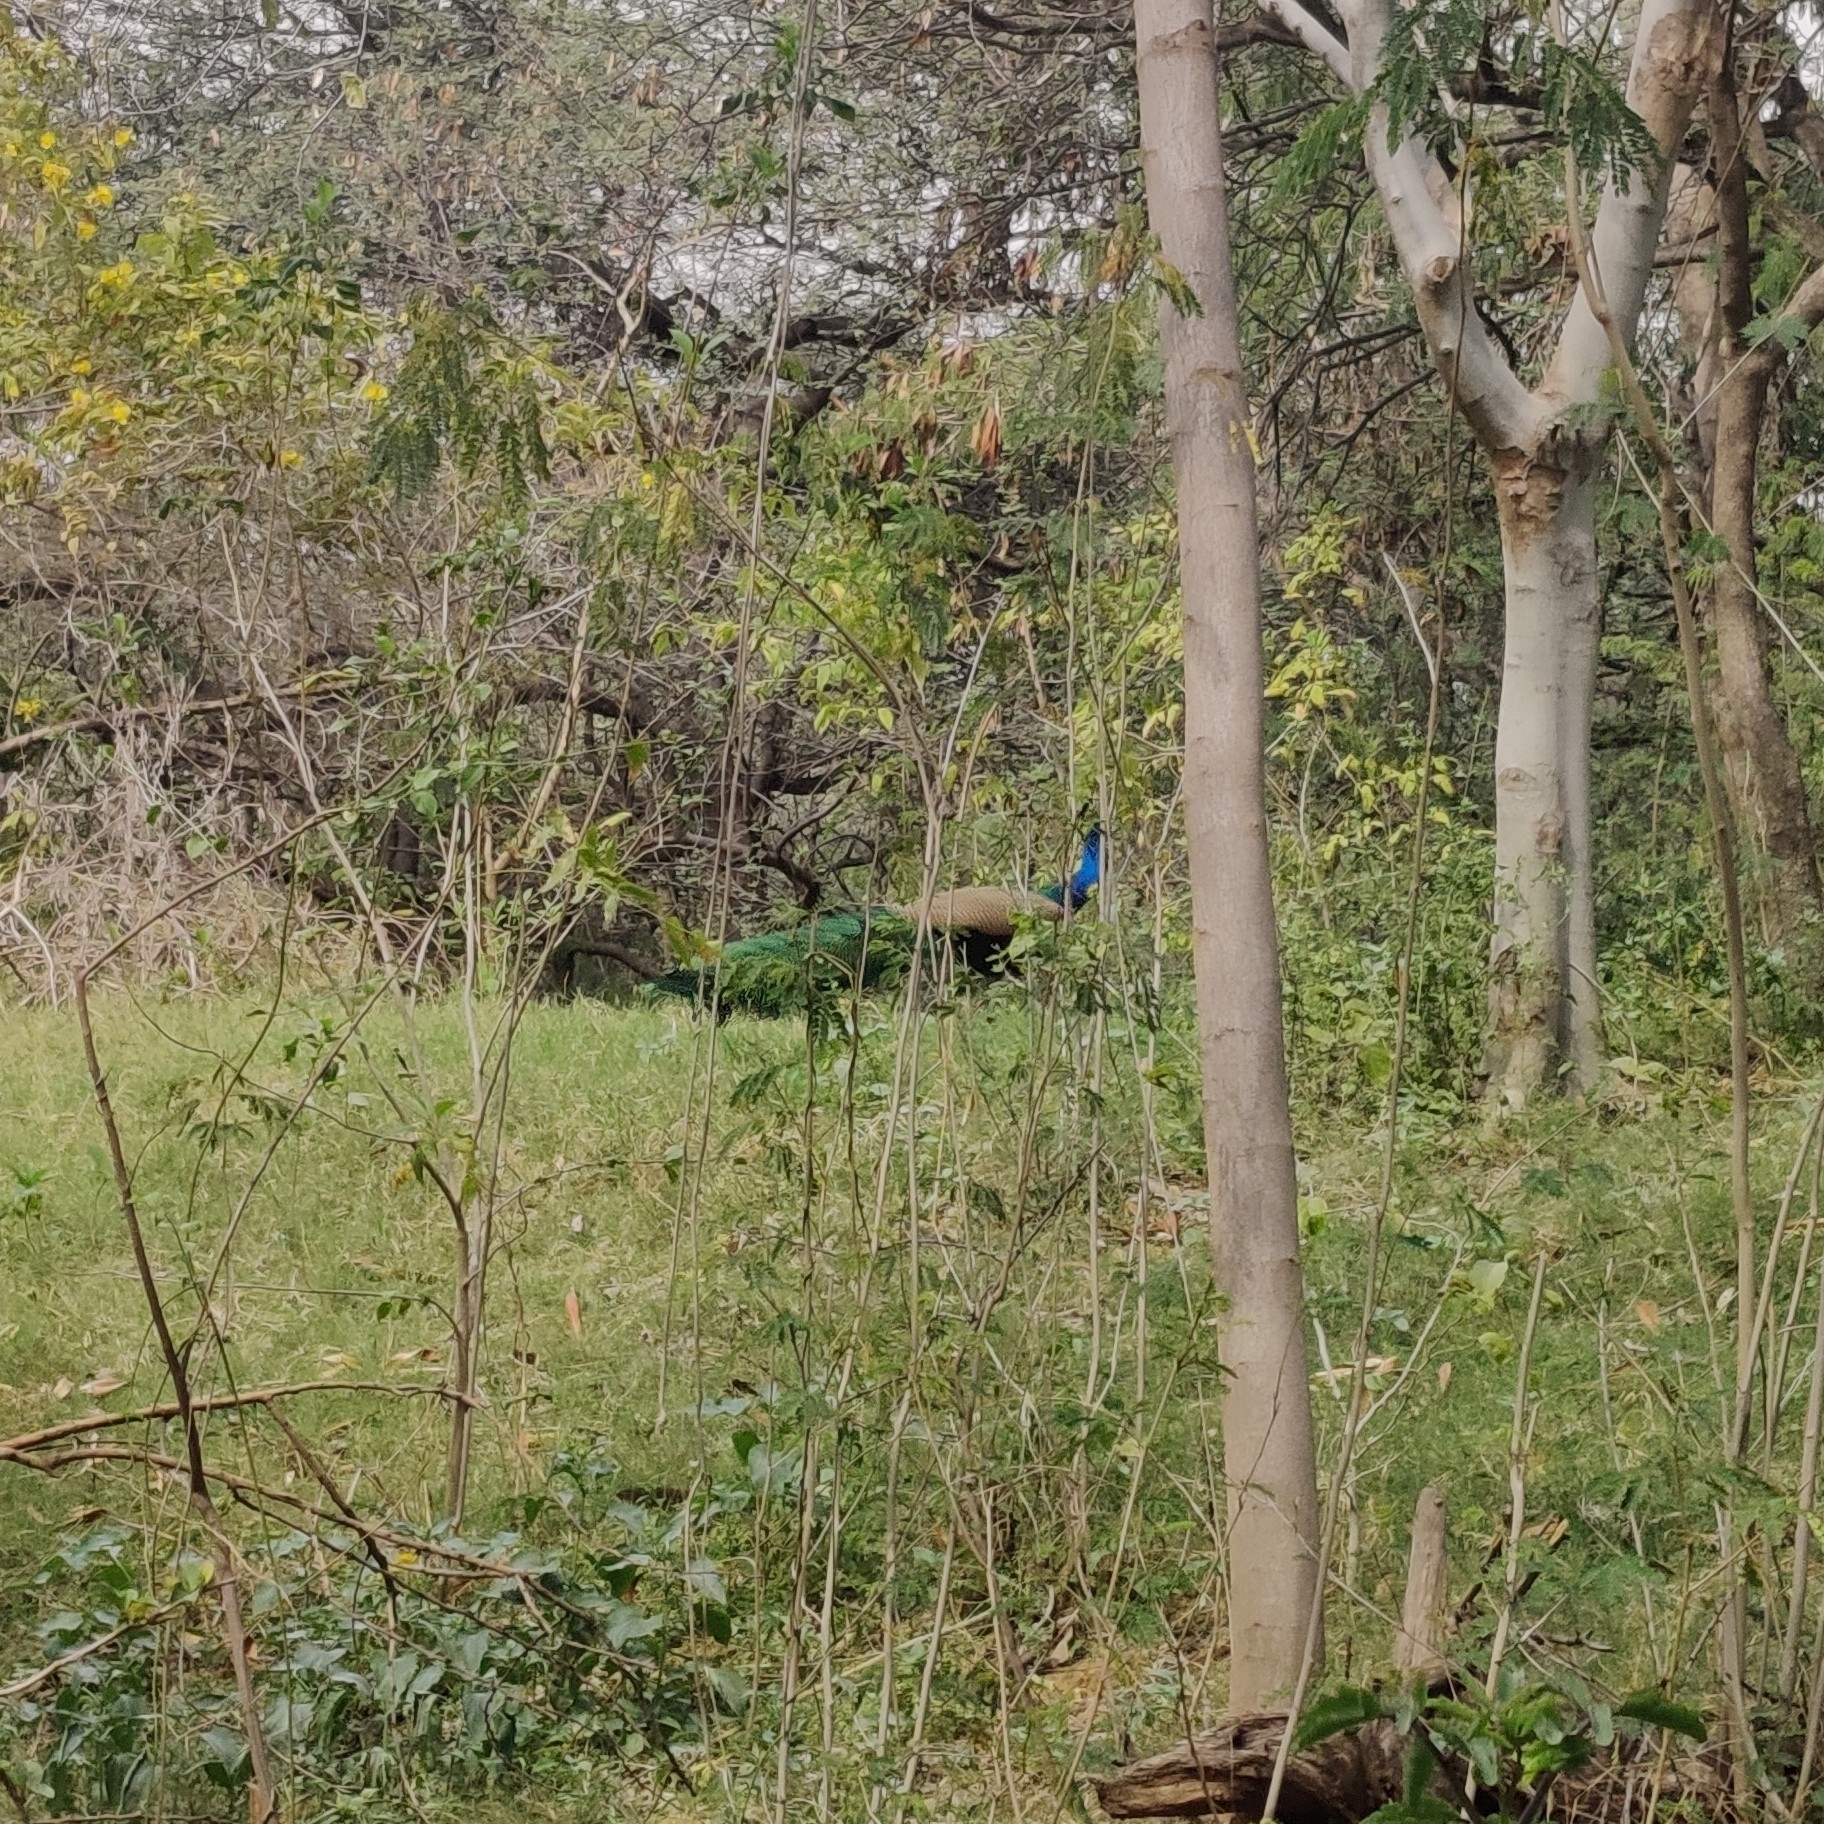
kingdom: Animalia
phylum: Chordata
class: Aves
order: Galliformes
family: Phasianidae
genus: Pavo
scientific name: Pavo cristatus
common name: Indian peafowl
